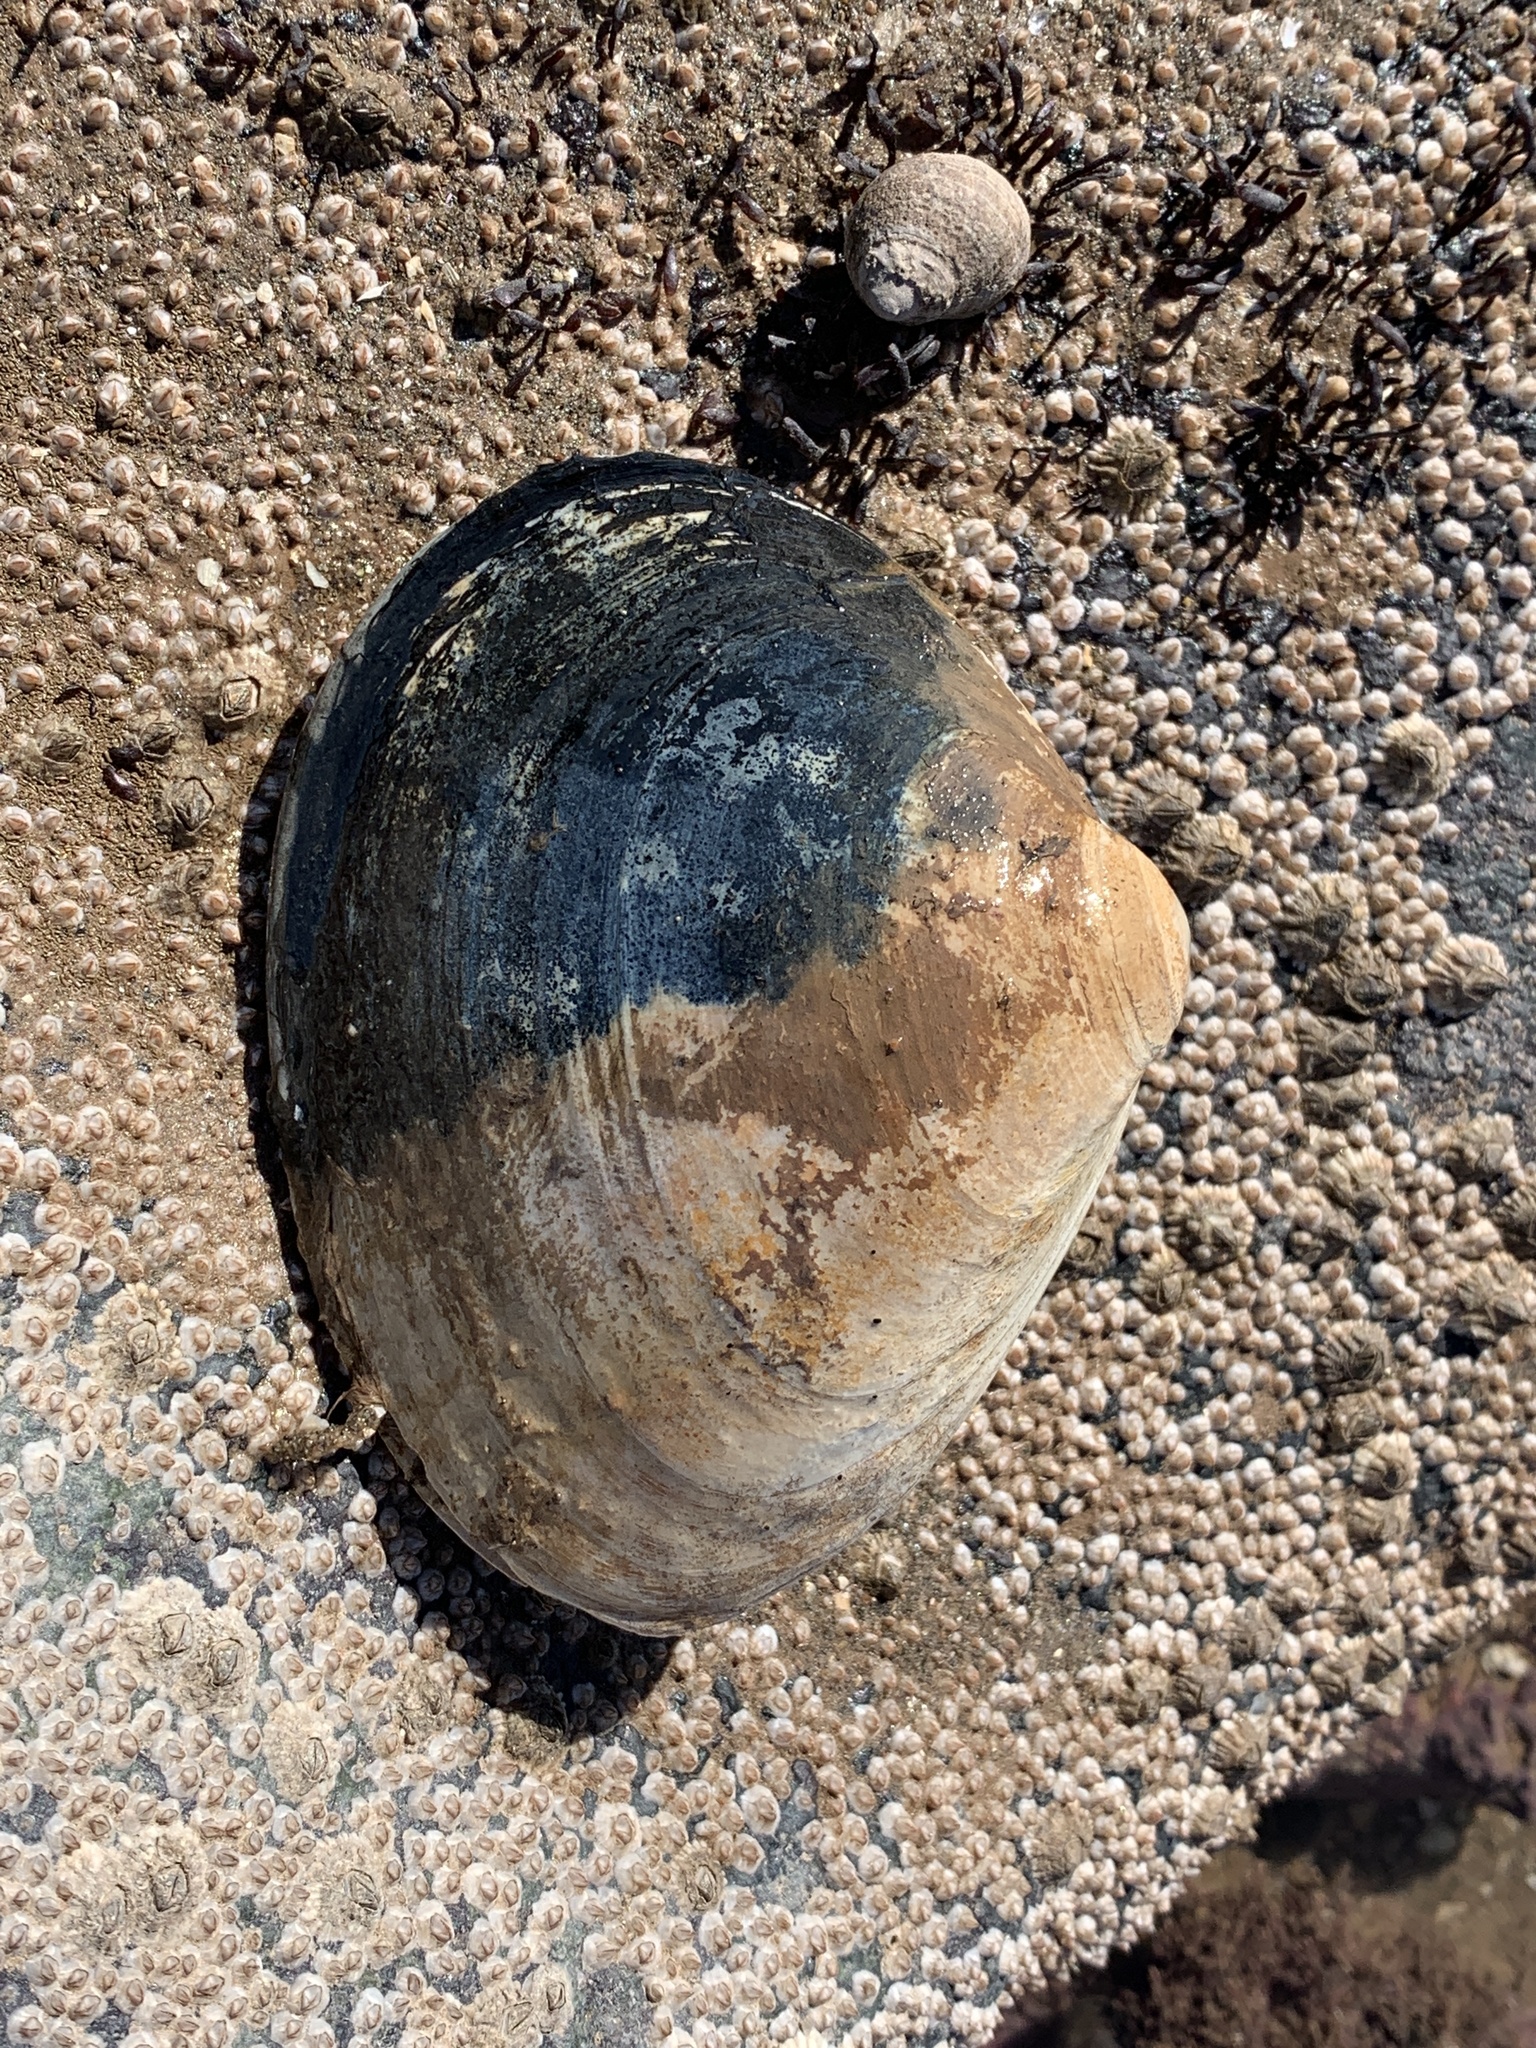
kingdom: Animalia
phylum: Mollusca
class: Bivalvia
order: Venerida
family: Mactridae
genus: Spisula
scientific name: Spisula solidissima
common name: Atlantic surf clam
